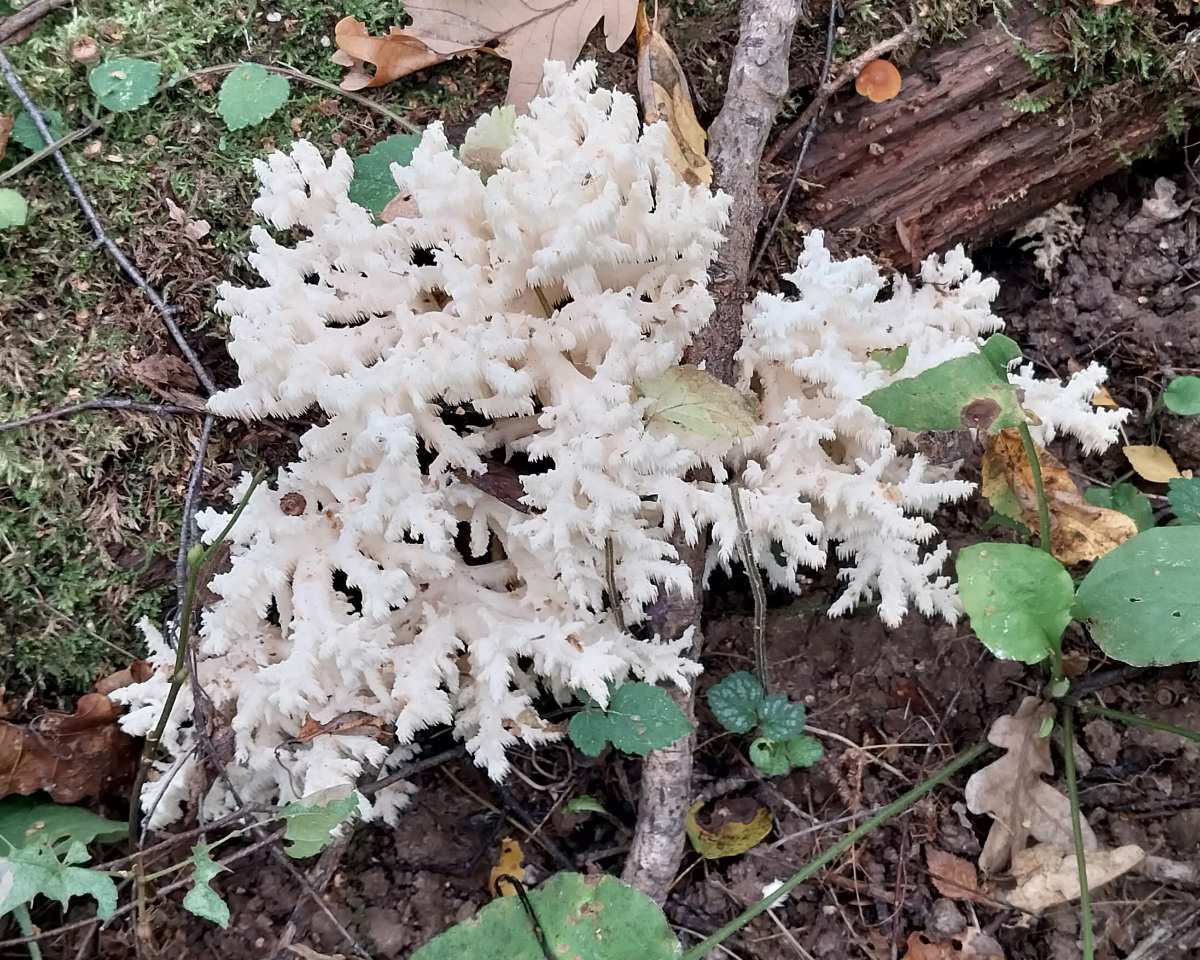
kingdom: Fungi
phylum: Basidiomycota
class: Agaricomycetes
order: Russulales
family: Hericiaceae
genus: Hericium
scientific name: Hericium coralloides
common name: Coral tooth
